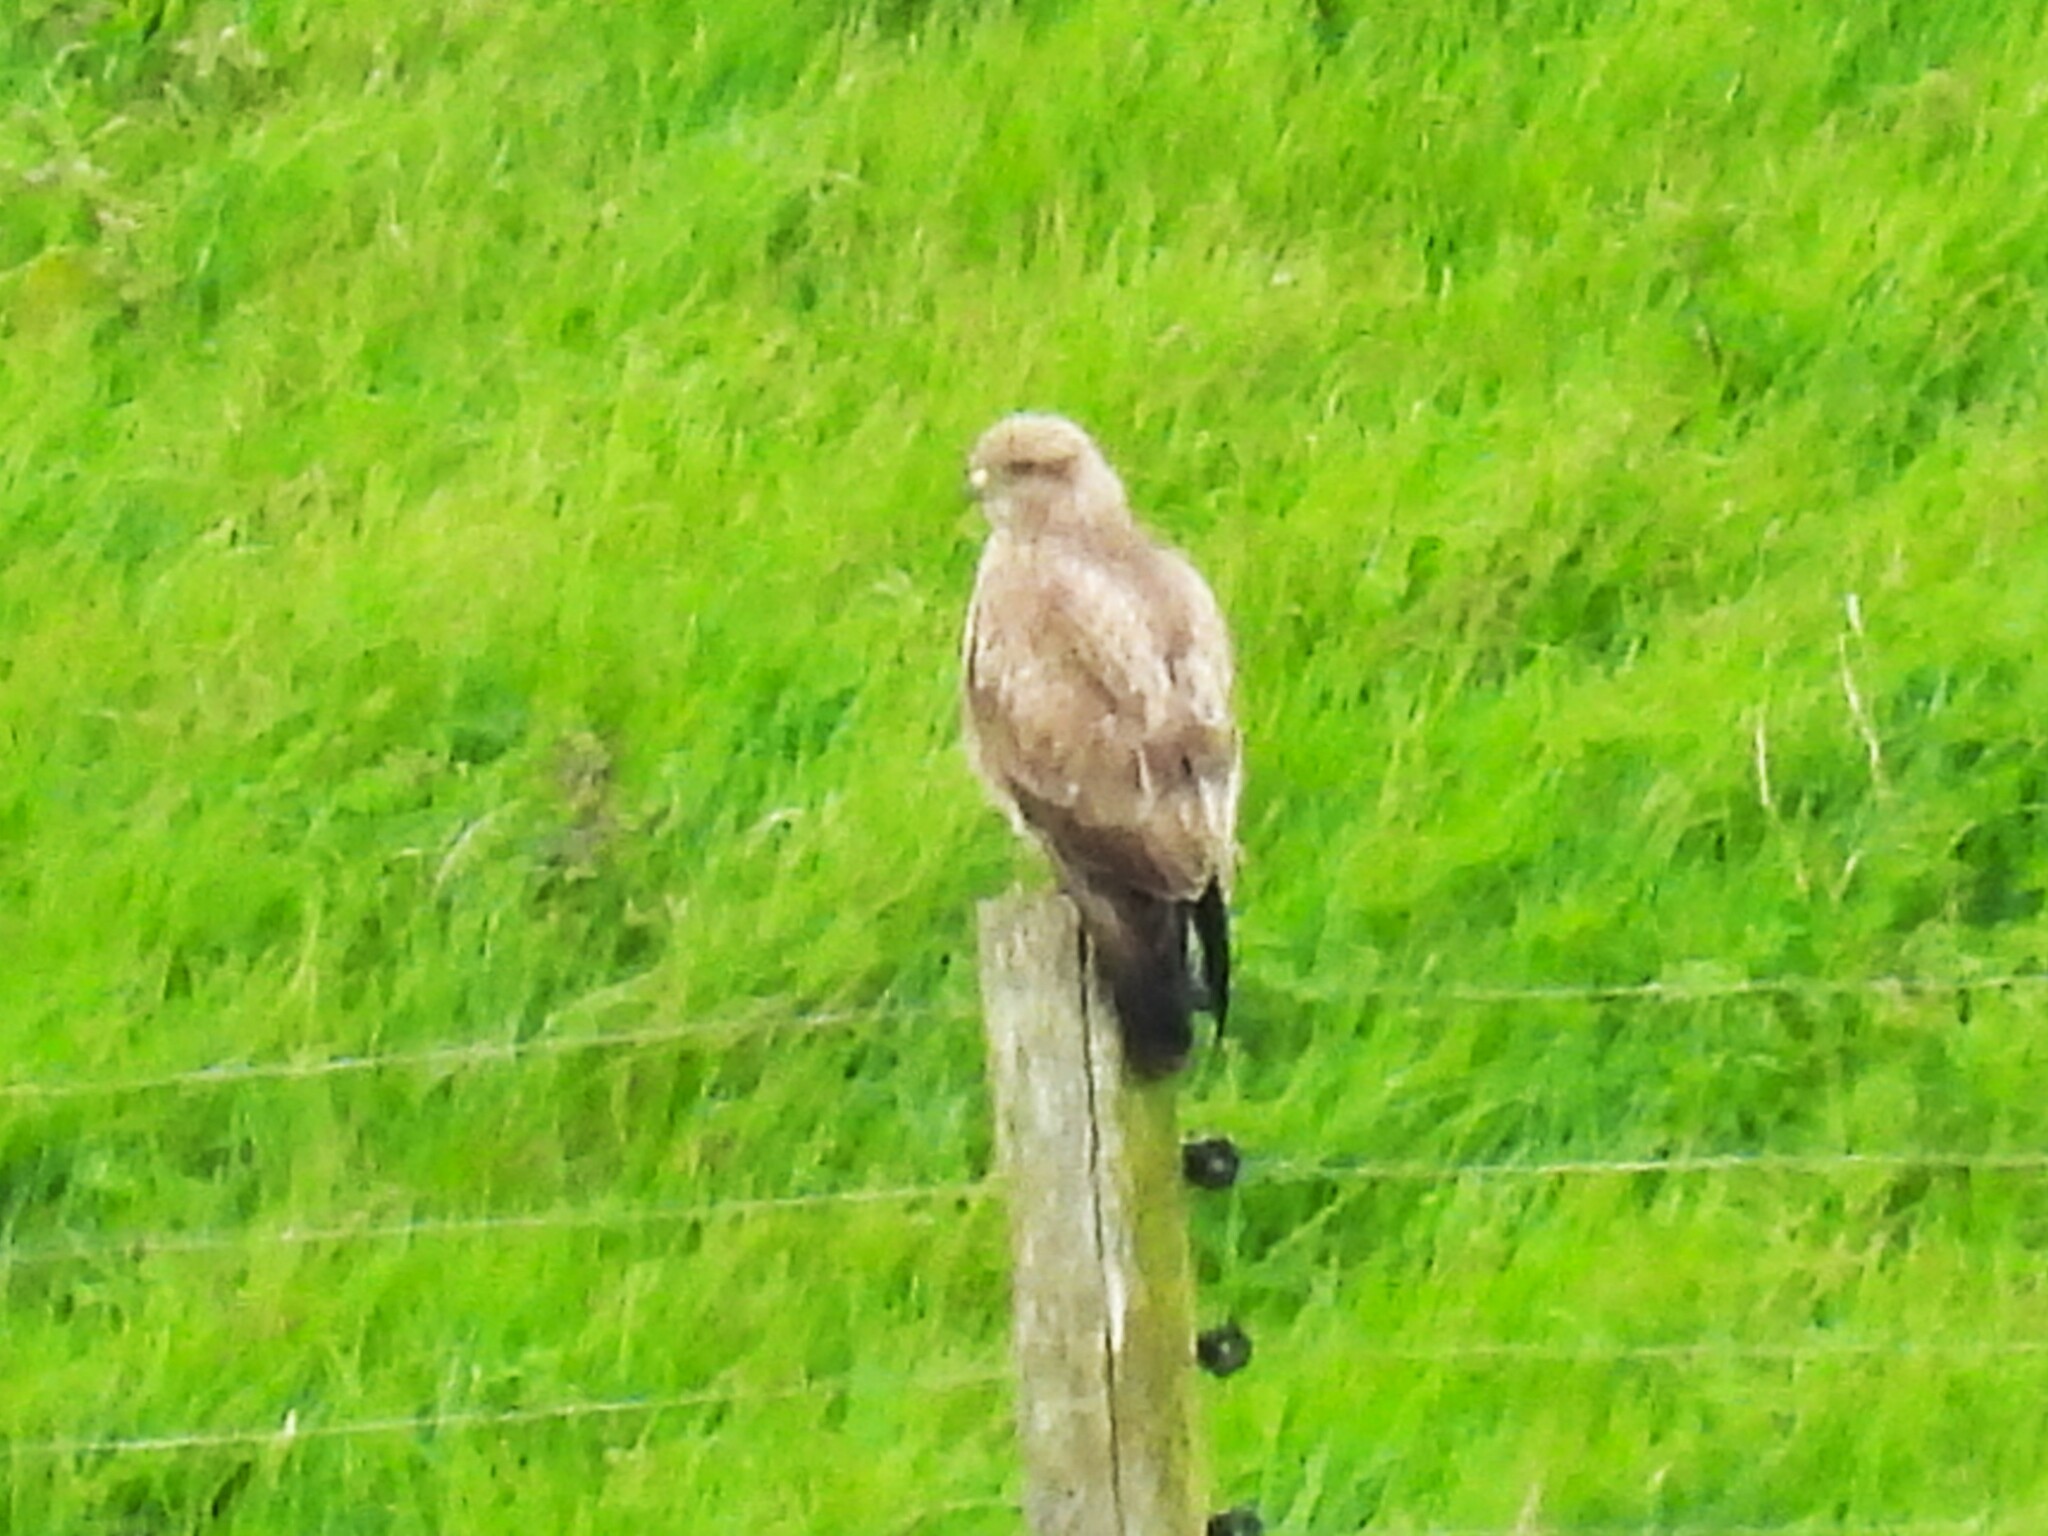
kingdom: Animalia
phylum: Chordata
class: Aves
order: Accipitriformes
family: Accipitridae
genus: Buteo
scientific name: Buteo buteo
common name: Common buzzard
